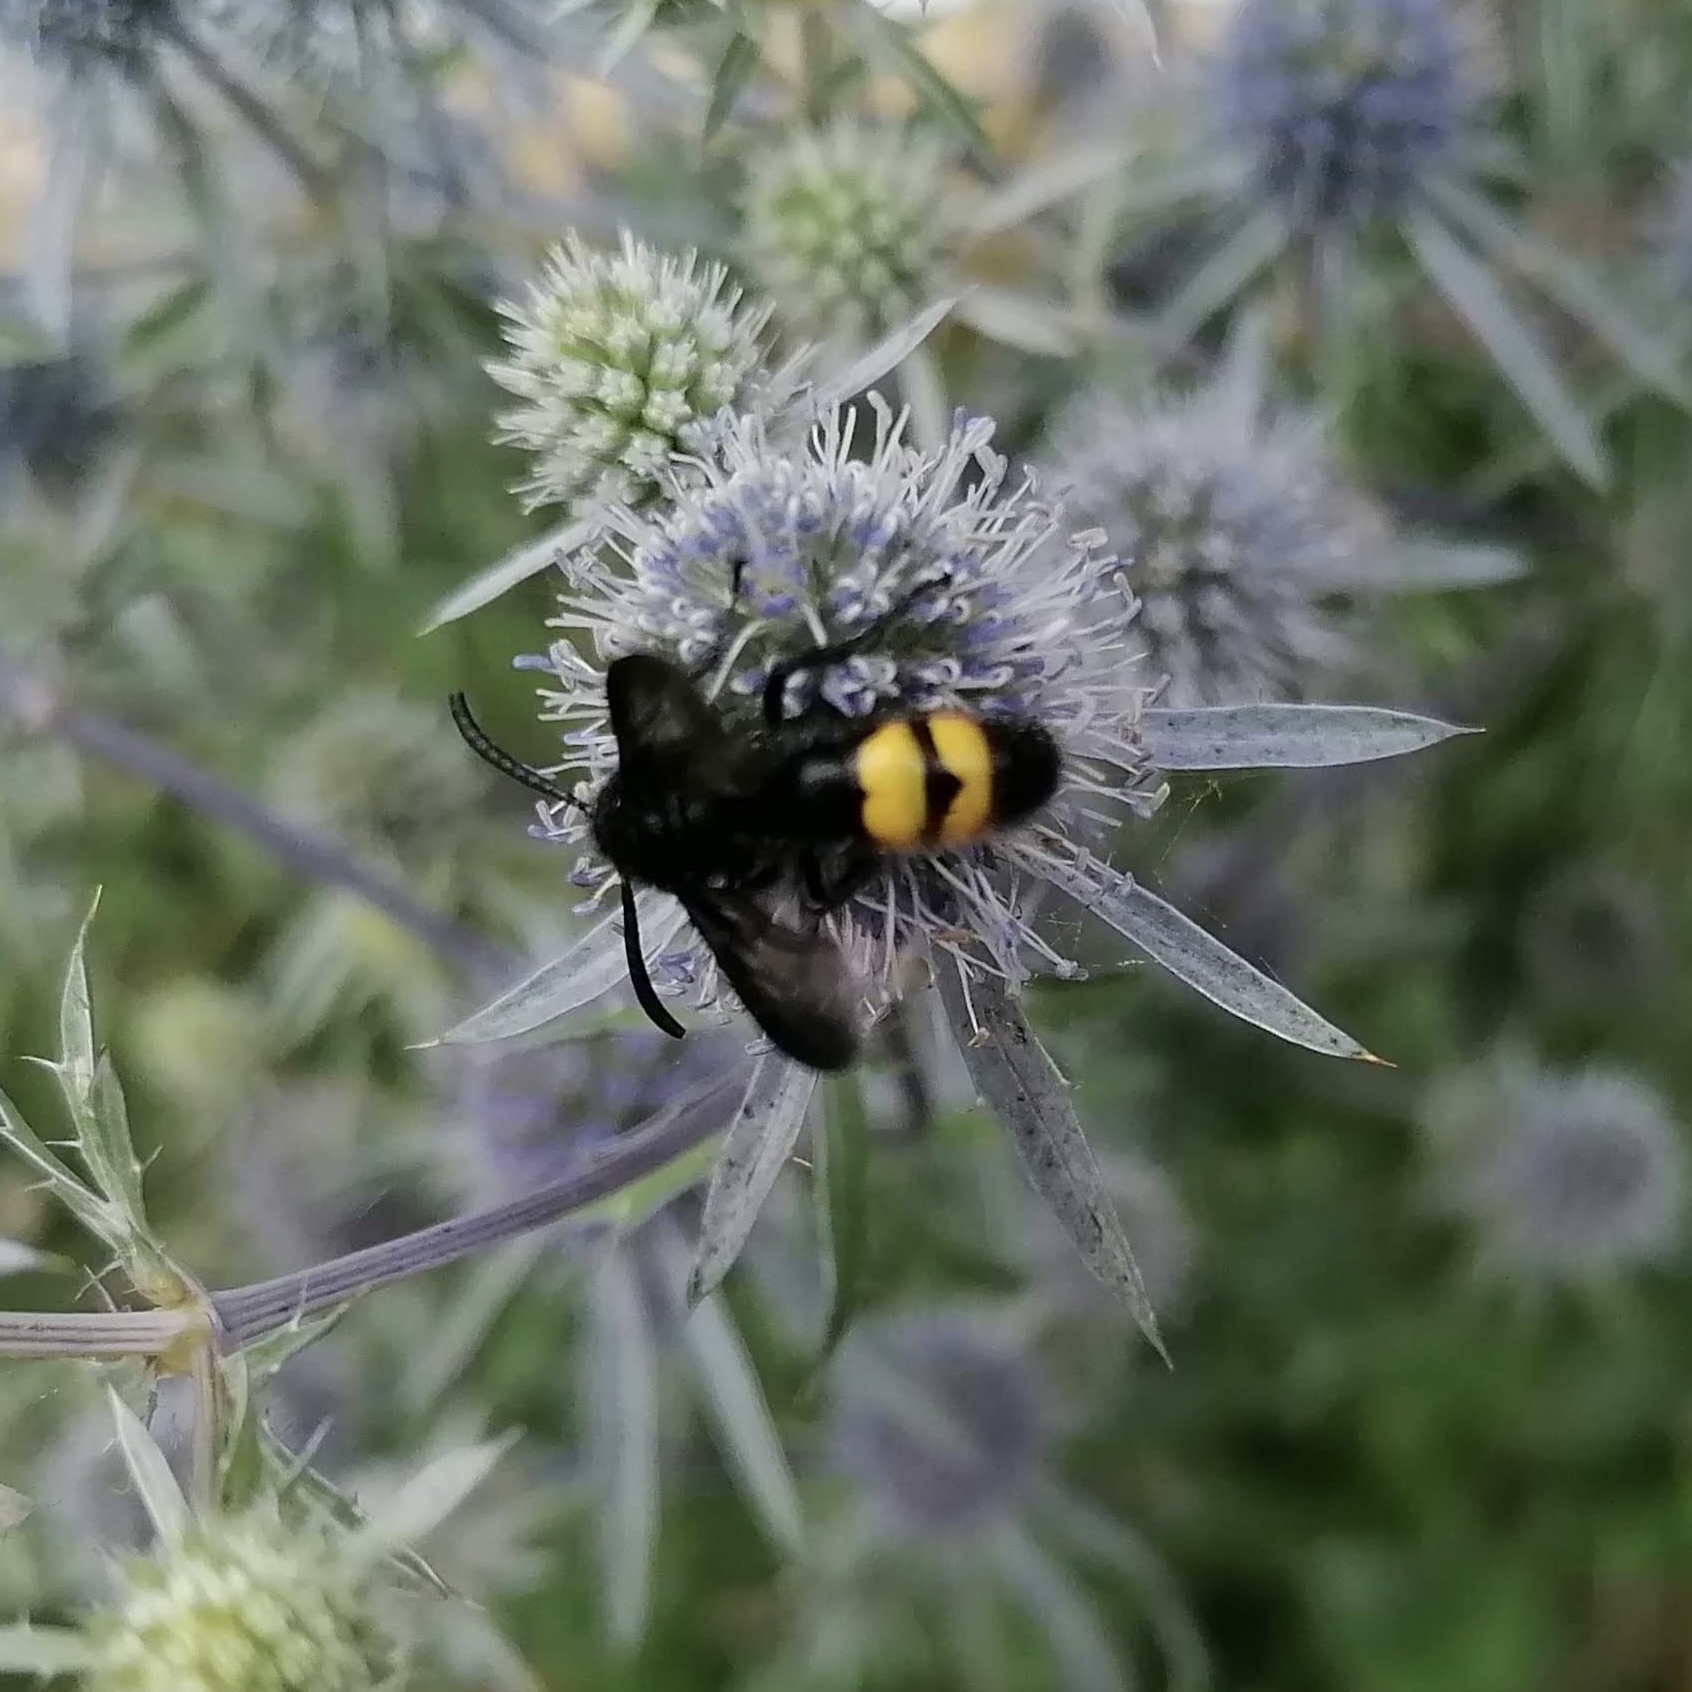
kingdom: Animalia
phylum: Arthropoda
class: Insecta
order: Hymenoptera
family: Scoliidae
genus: Scolia
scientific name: Scolia hirta
